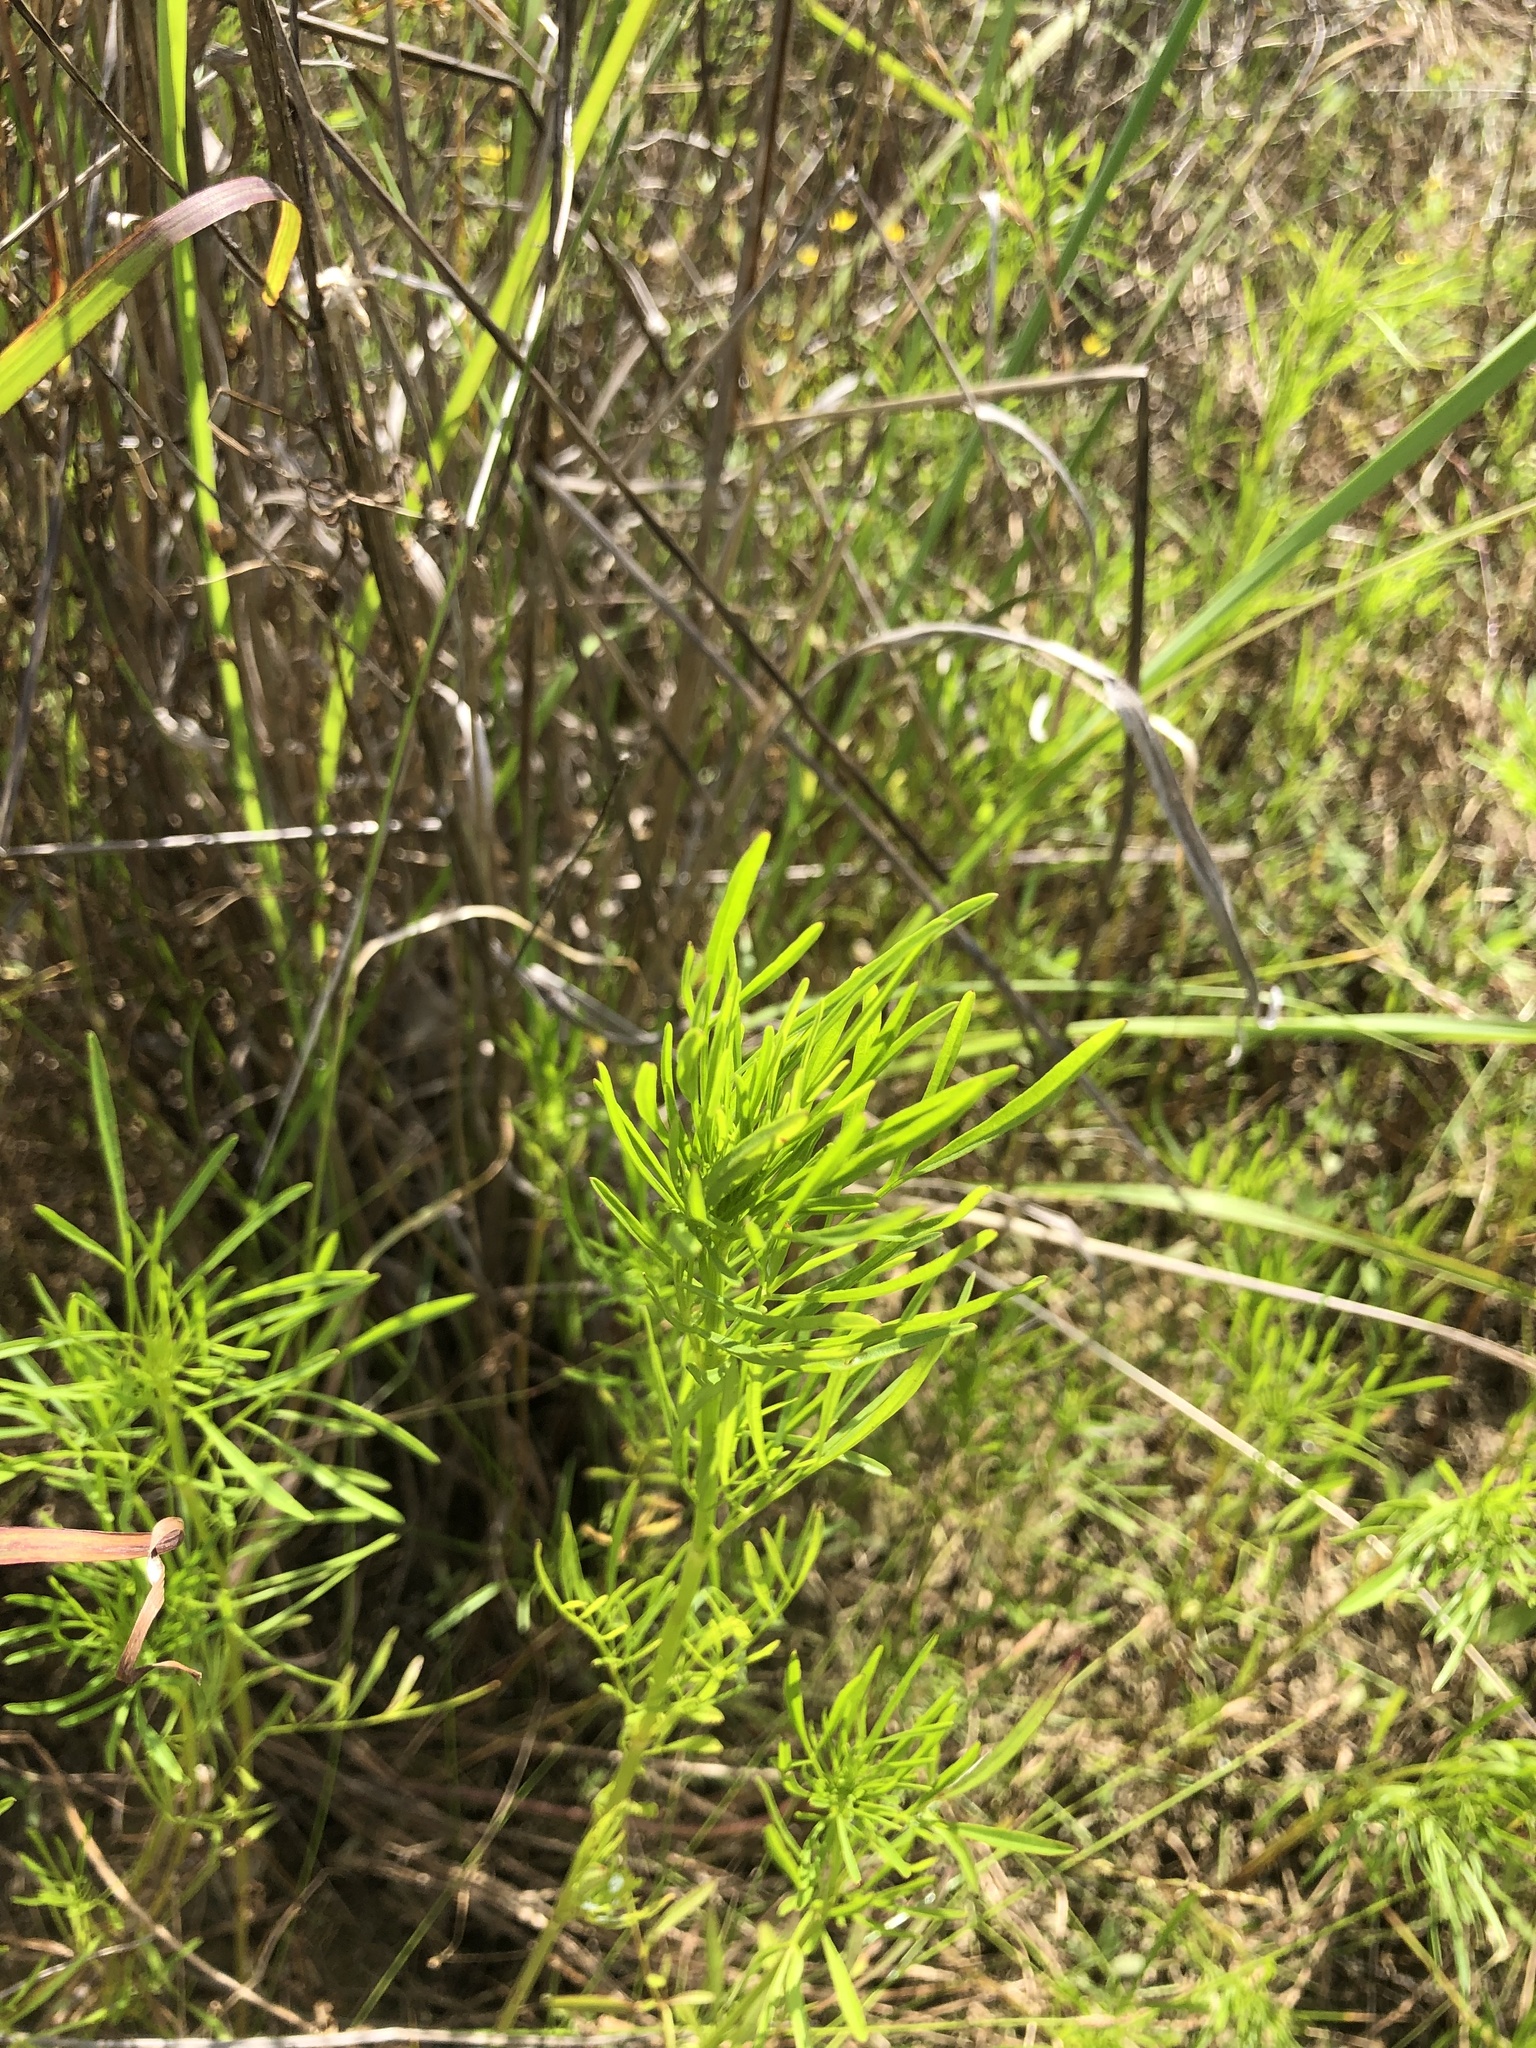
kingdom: Plantae
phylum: Tracheophyta
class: Magnoliopsida
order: Asterales
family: Asteraceae
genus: Coreopsis
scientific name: Coreopsis tinctoria
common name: Garden tickseed
